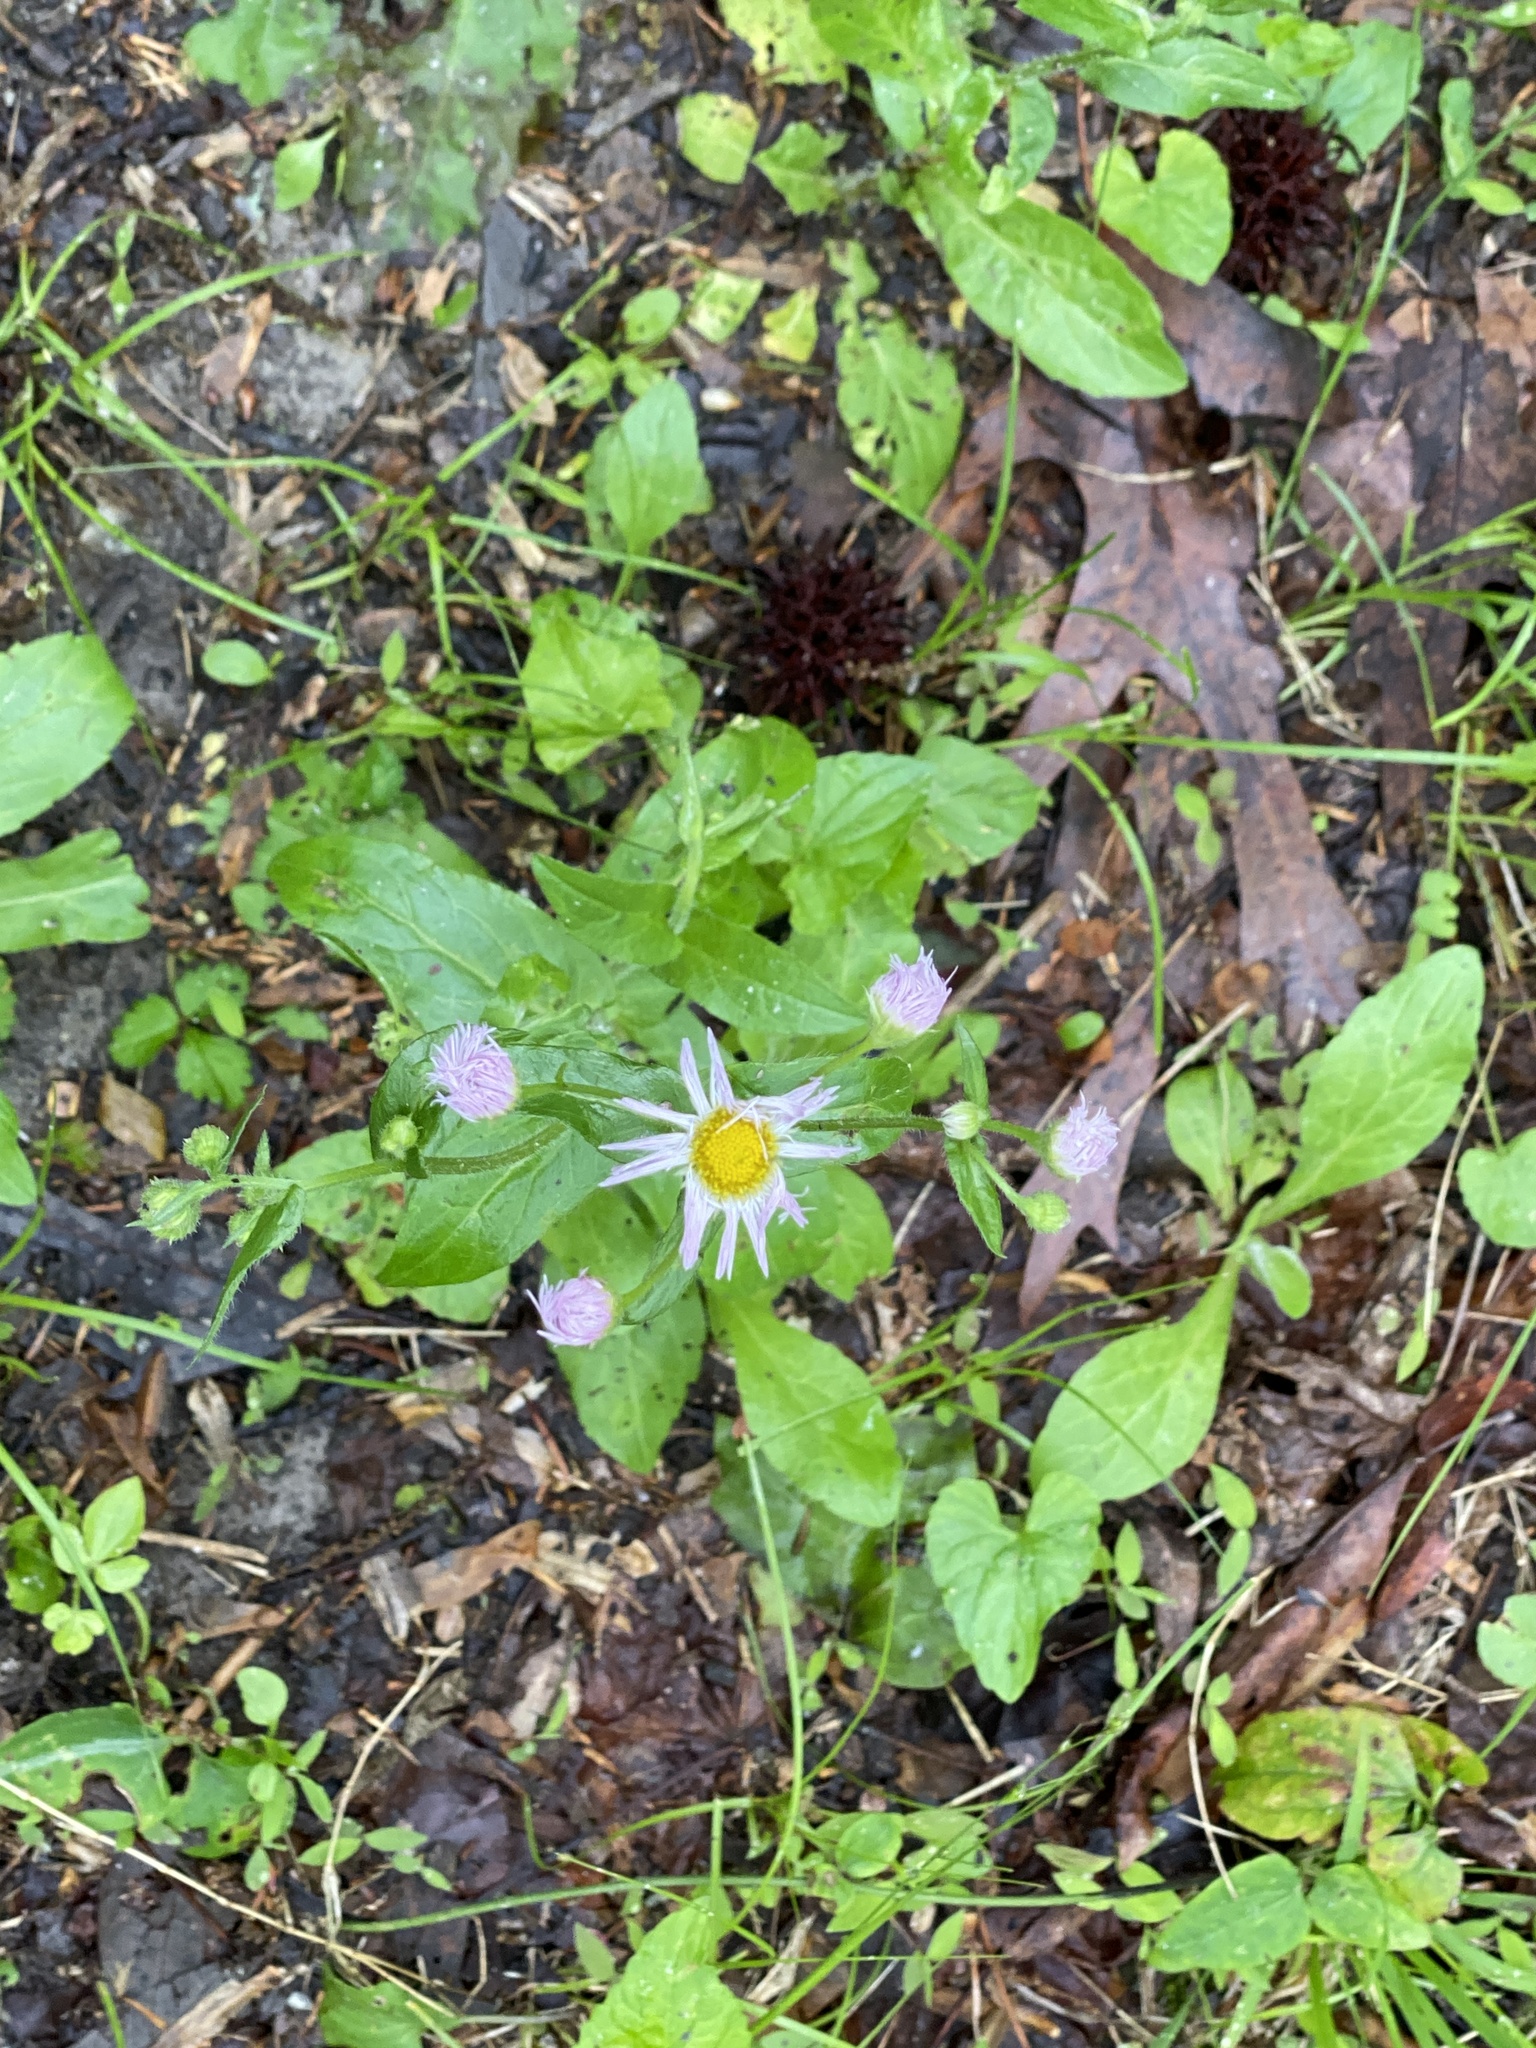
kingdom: Plantae
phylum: Tracheophyta
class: Magnoliopsida
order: Asterales
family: Asteraceae
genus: Erigeron
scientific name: Erigeron pulchellus
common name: Hairy fleabane
